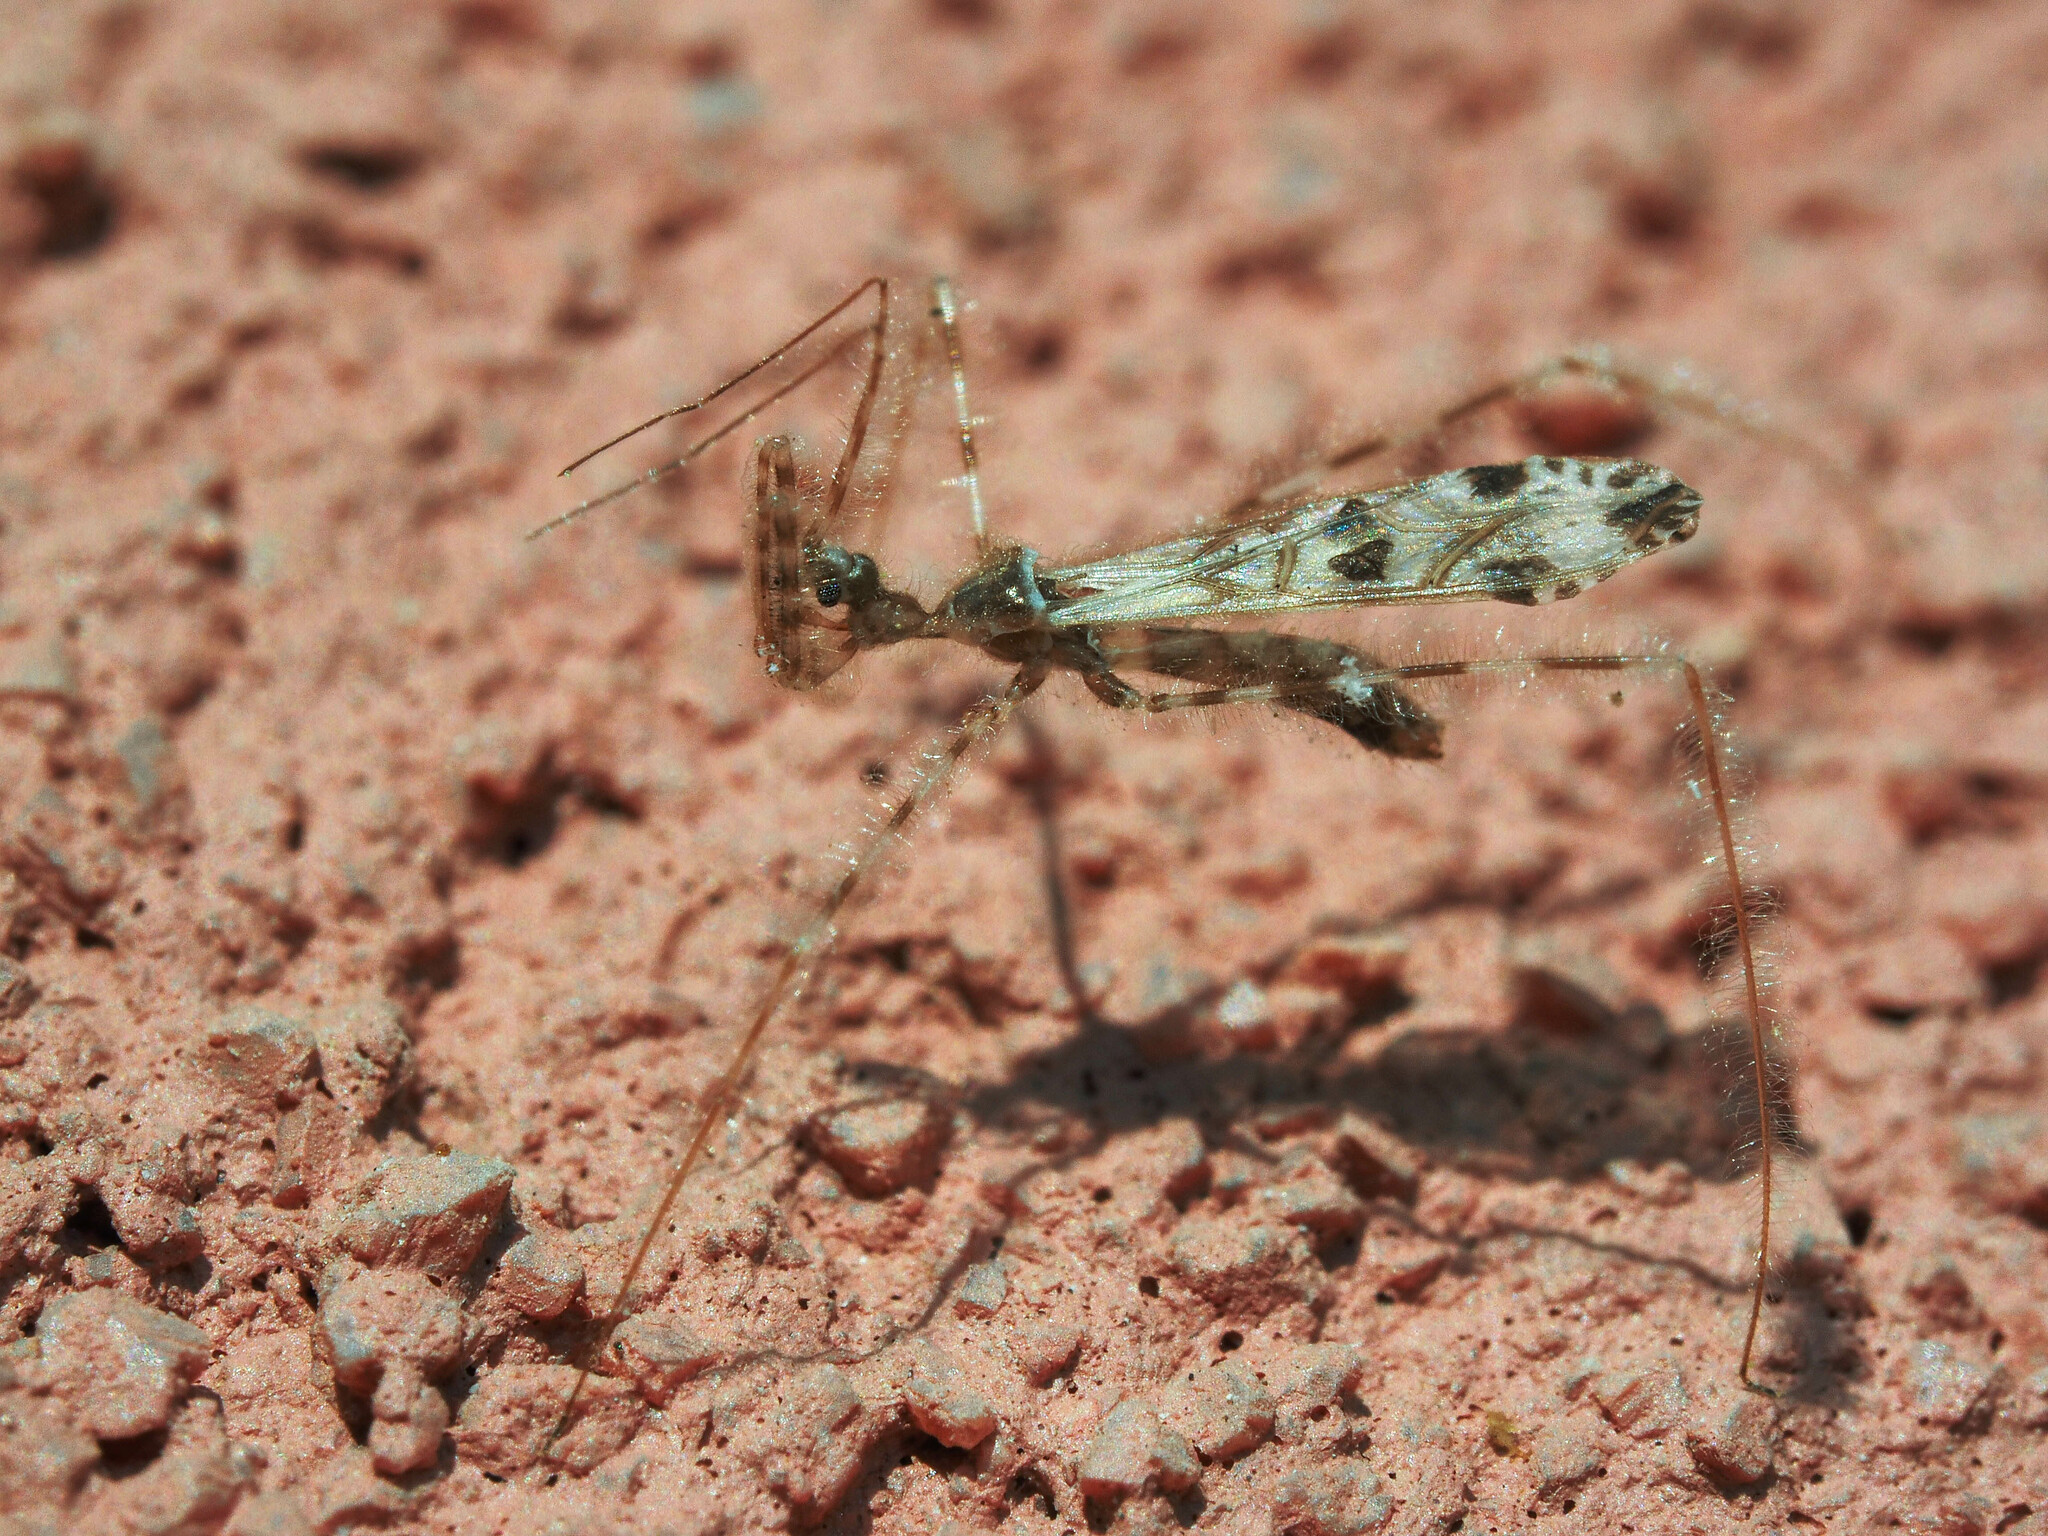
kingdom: Animalia
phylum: Arthropoda
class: Insecta
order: Hemiptera
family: Reduviidae
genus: Stenolemus
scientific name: Stenolemus novaki
